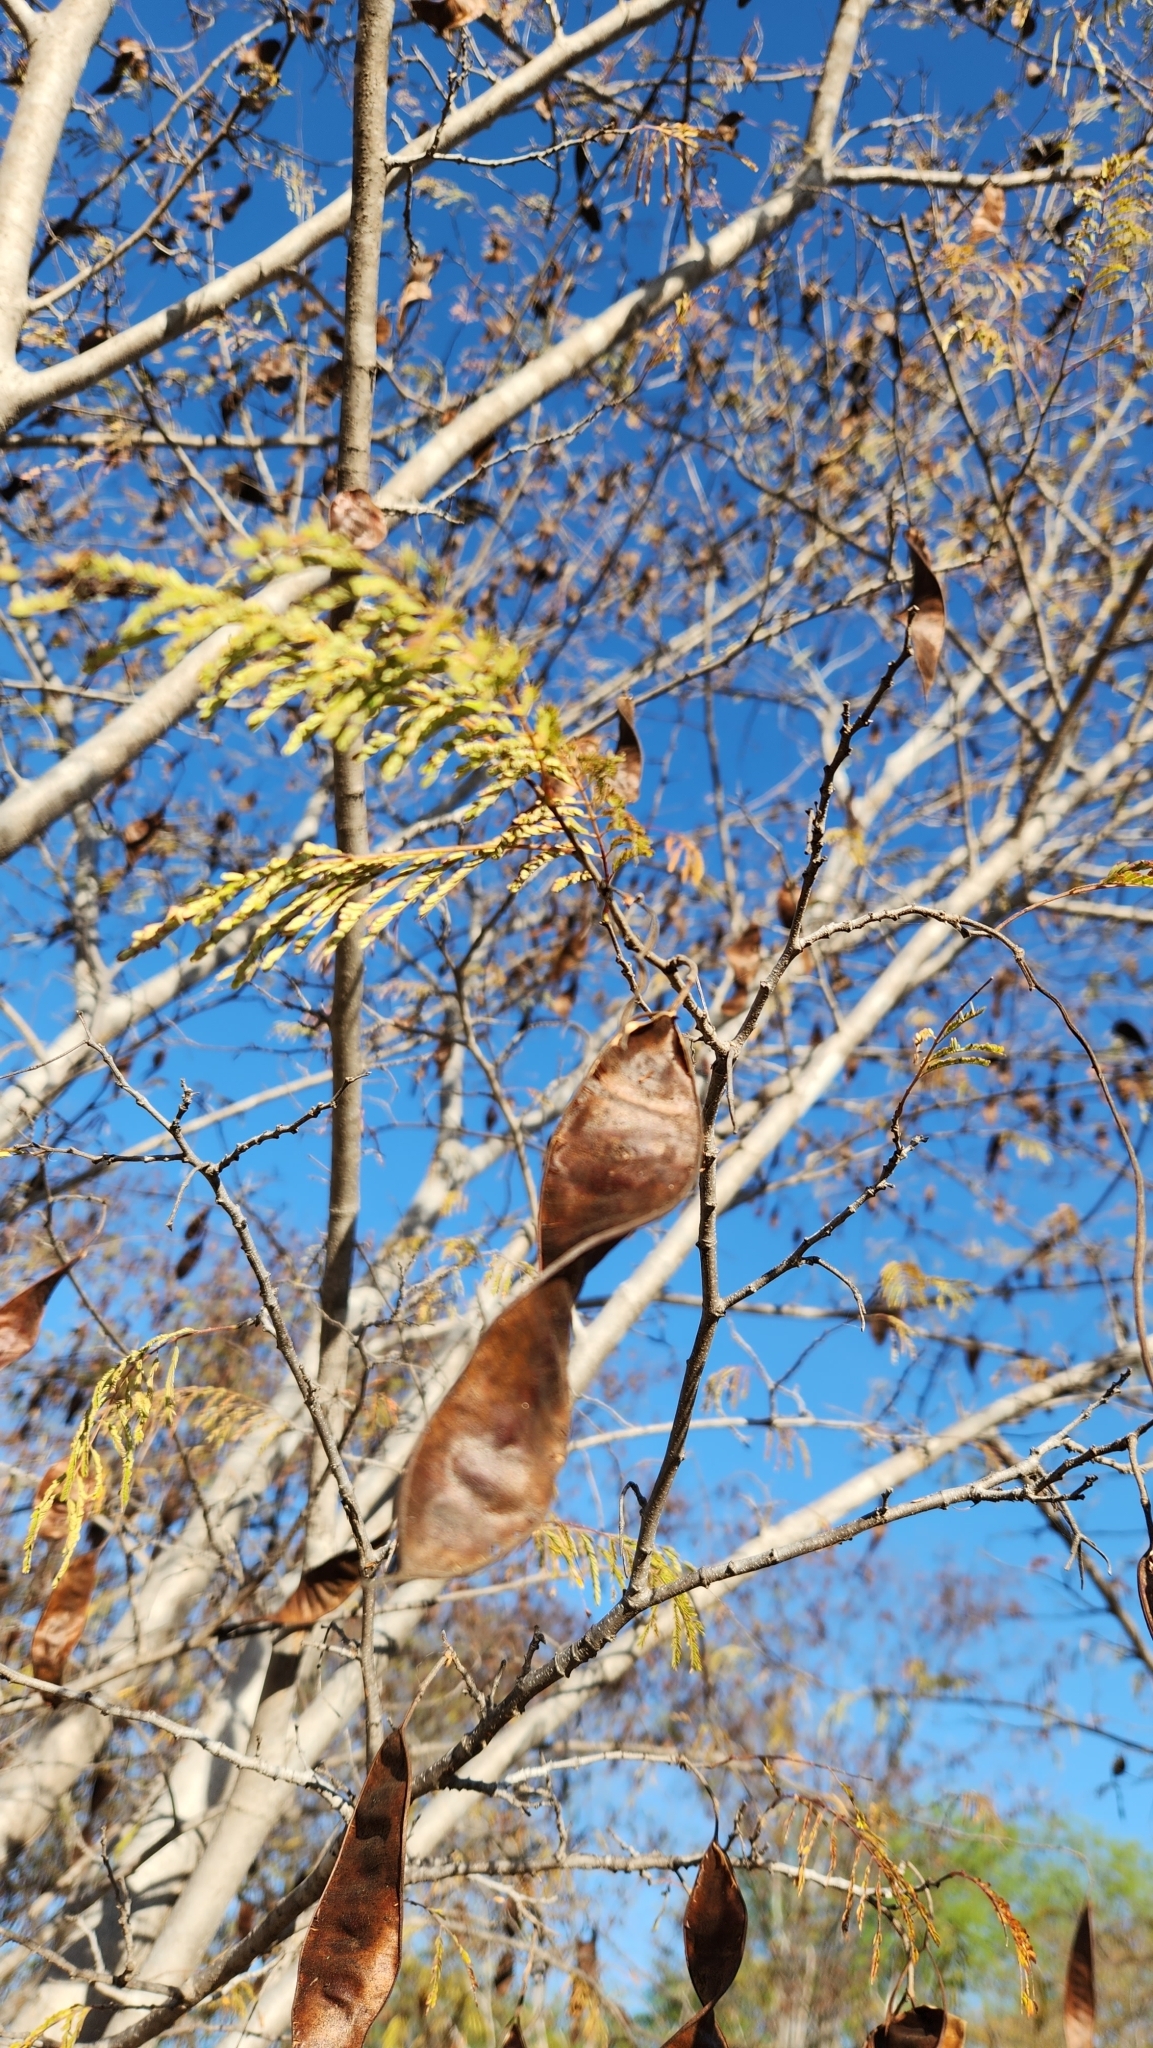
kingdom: Plantae
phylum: Tracheophyta
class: Magnoliopsida
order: Fabales
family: Fabaceae
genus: Lysiloma
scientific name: Lysiloma divaricatum
